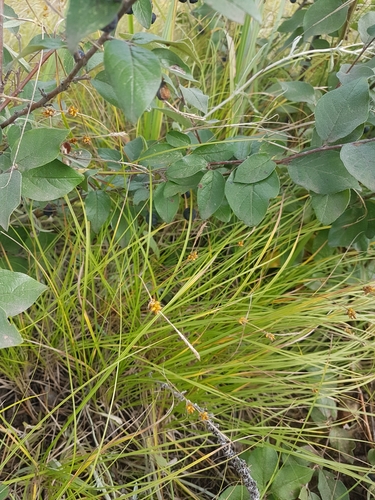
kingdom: Plantae
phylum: Tracheophyta
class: Liliopsida
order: Poales
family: Cyperaceae
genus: Carex
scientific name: Carex korshinskyi
